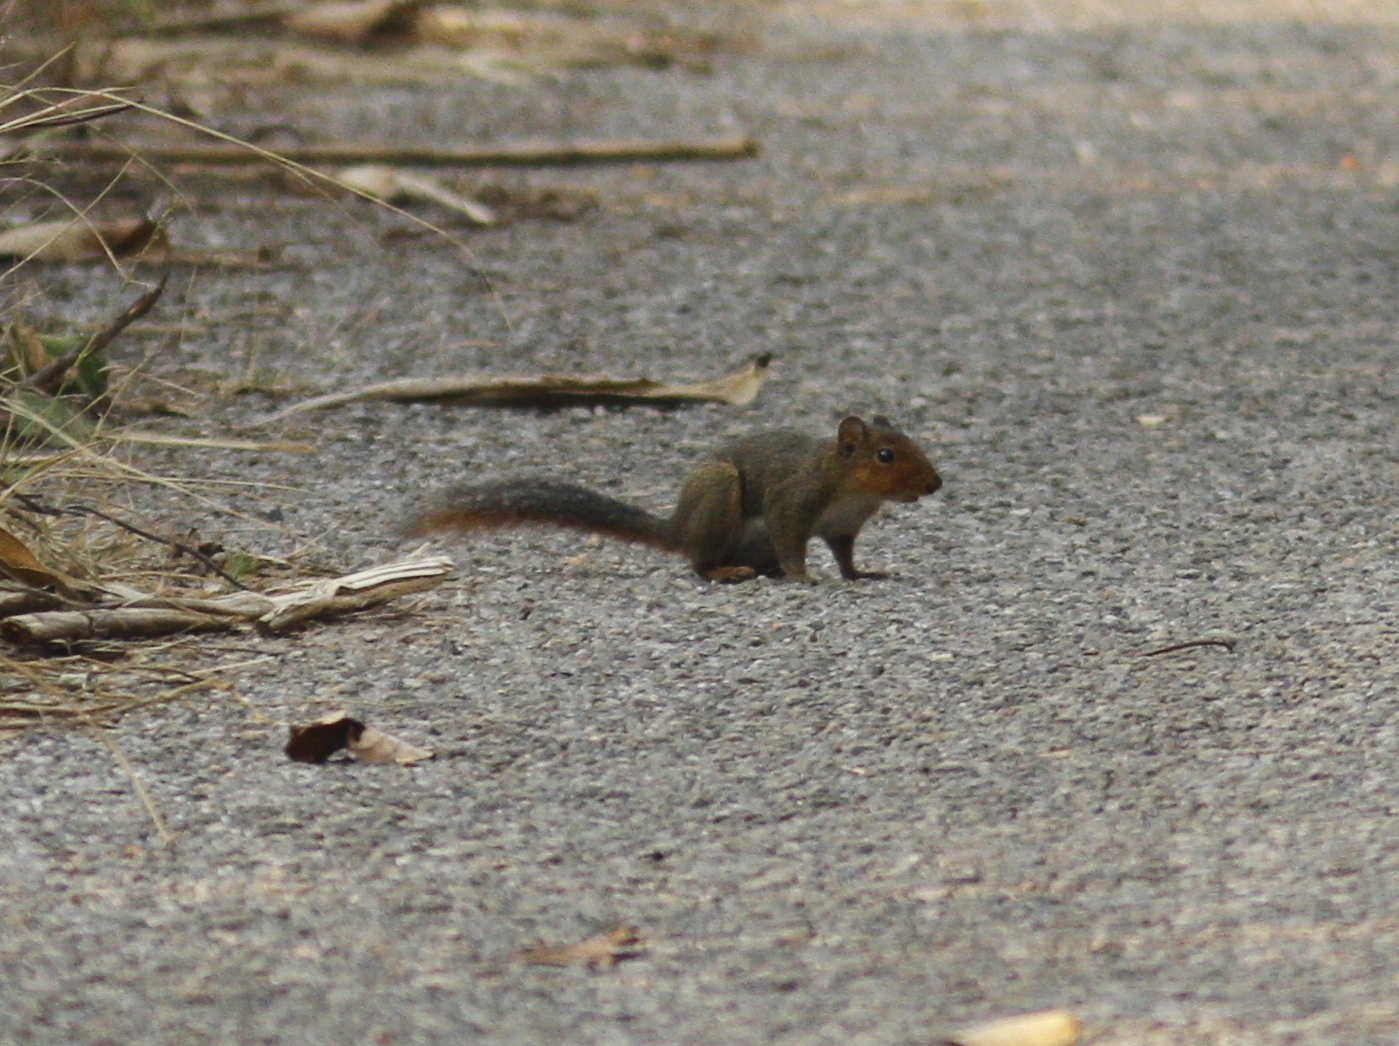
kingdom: Animalia
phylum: Chordata
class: Mammalia
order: Rodentia
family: Sciuridae
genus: Dremomys
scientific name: Dremomys rufigenis
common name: Asian red-cheeked squirrel
